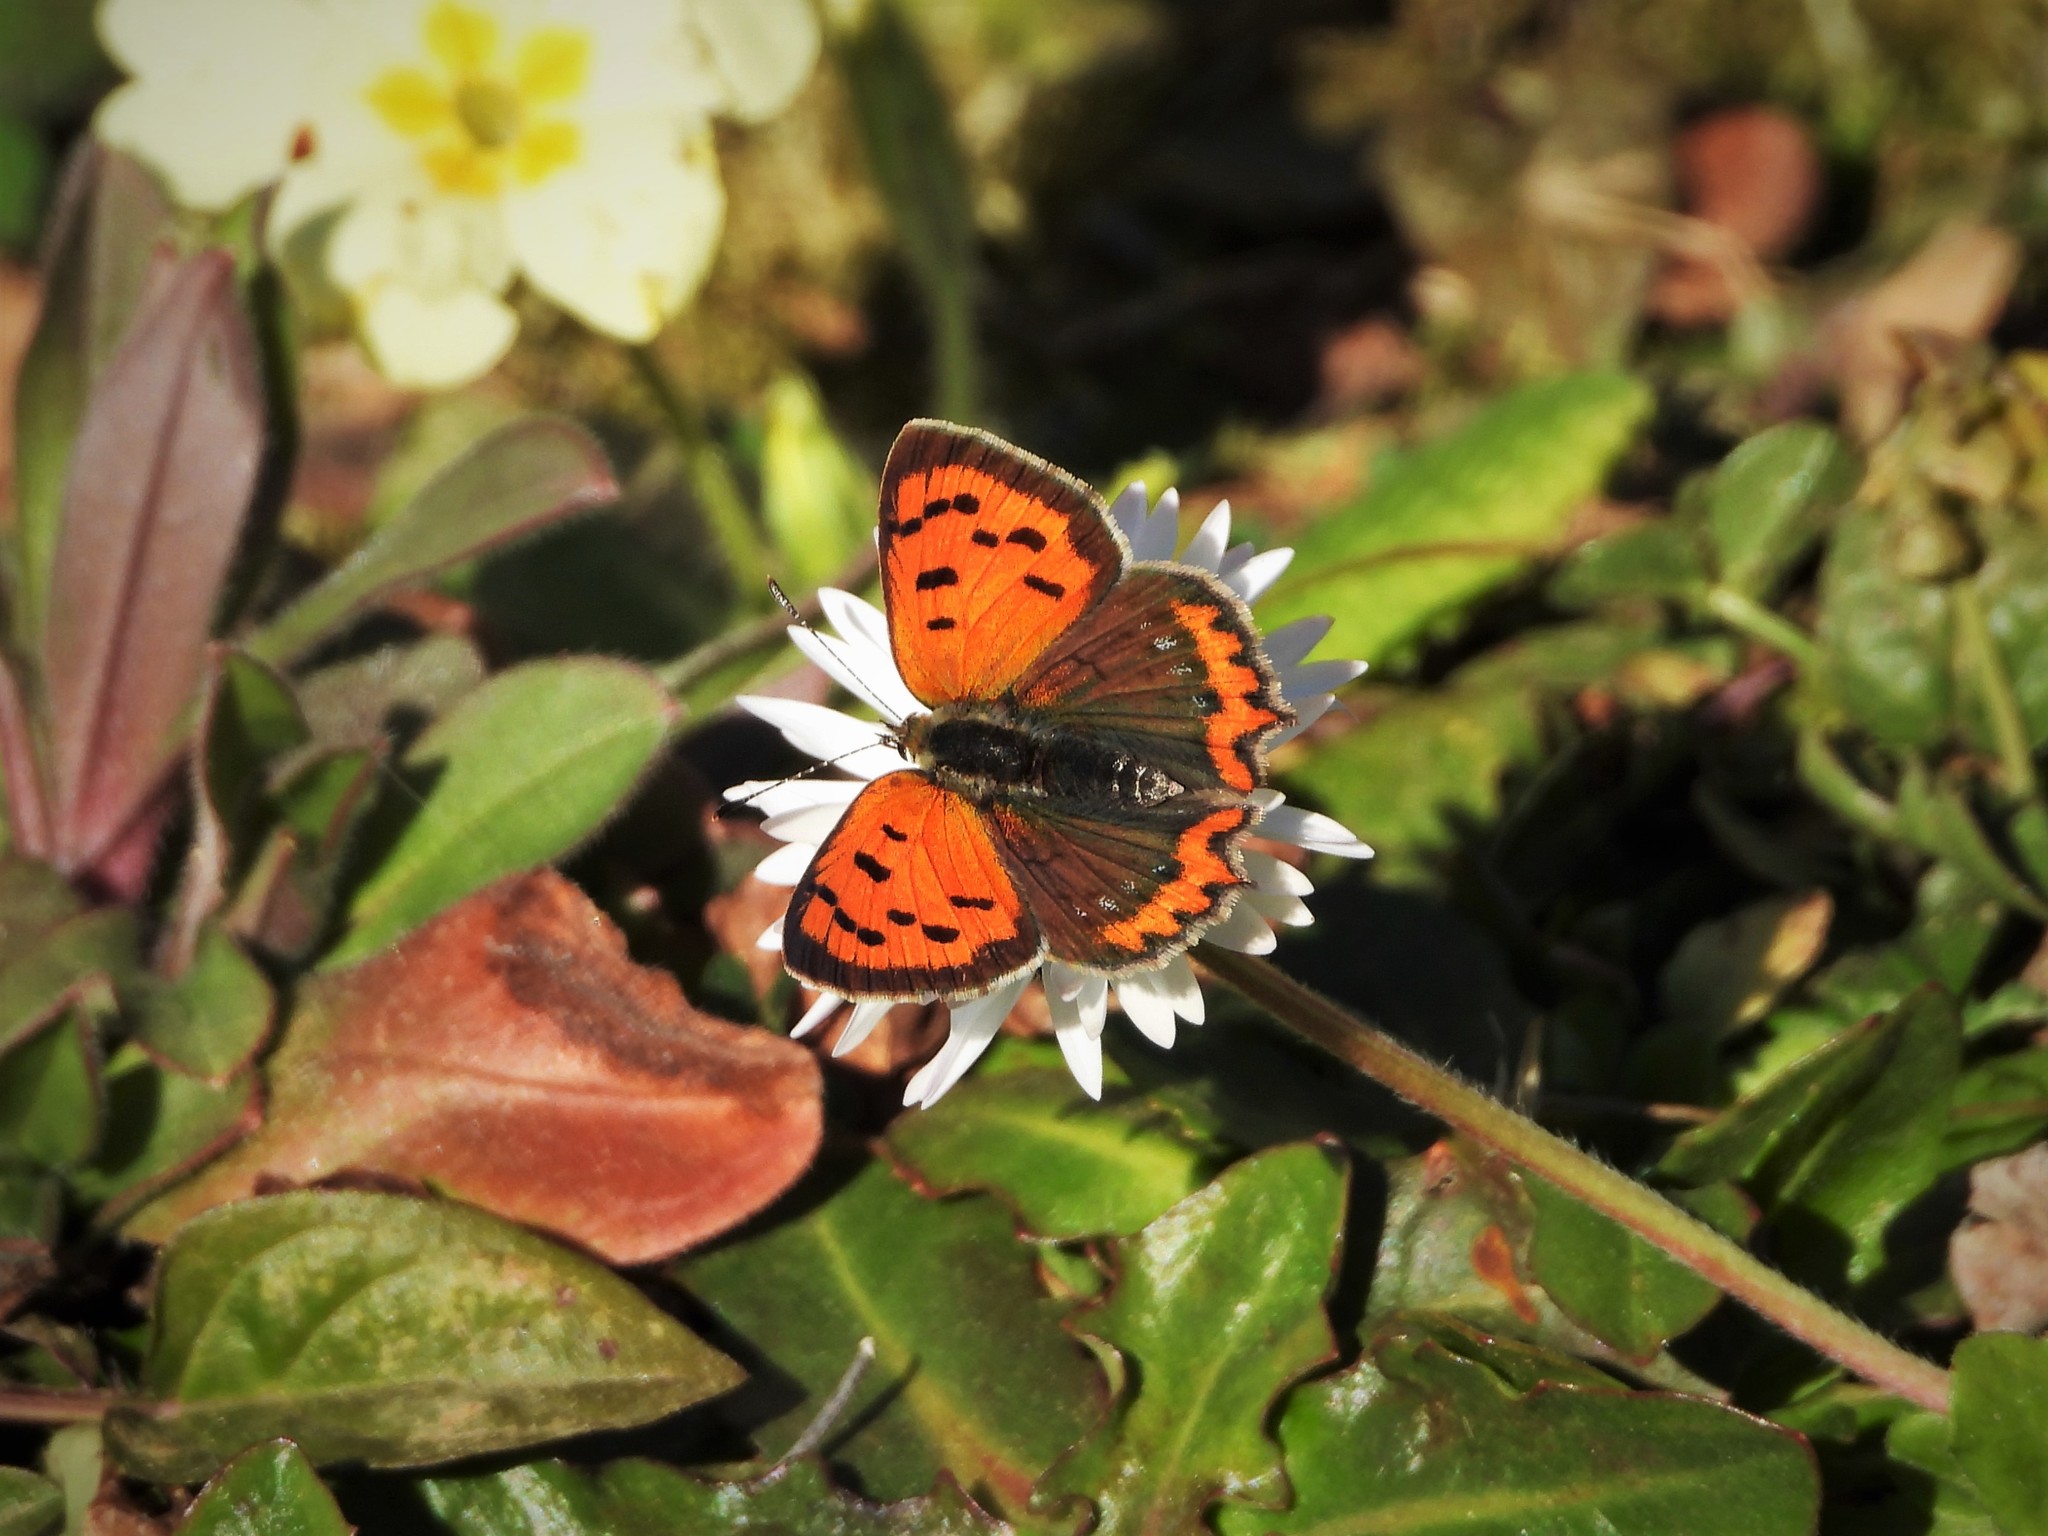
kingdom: Animalia
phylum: Arthropoda
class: Insecta
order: Lepidoptera
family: Lycaenidae
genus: Lycaena
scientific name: Lycaena phlaeas
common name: Small copper
